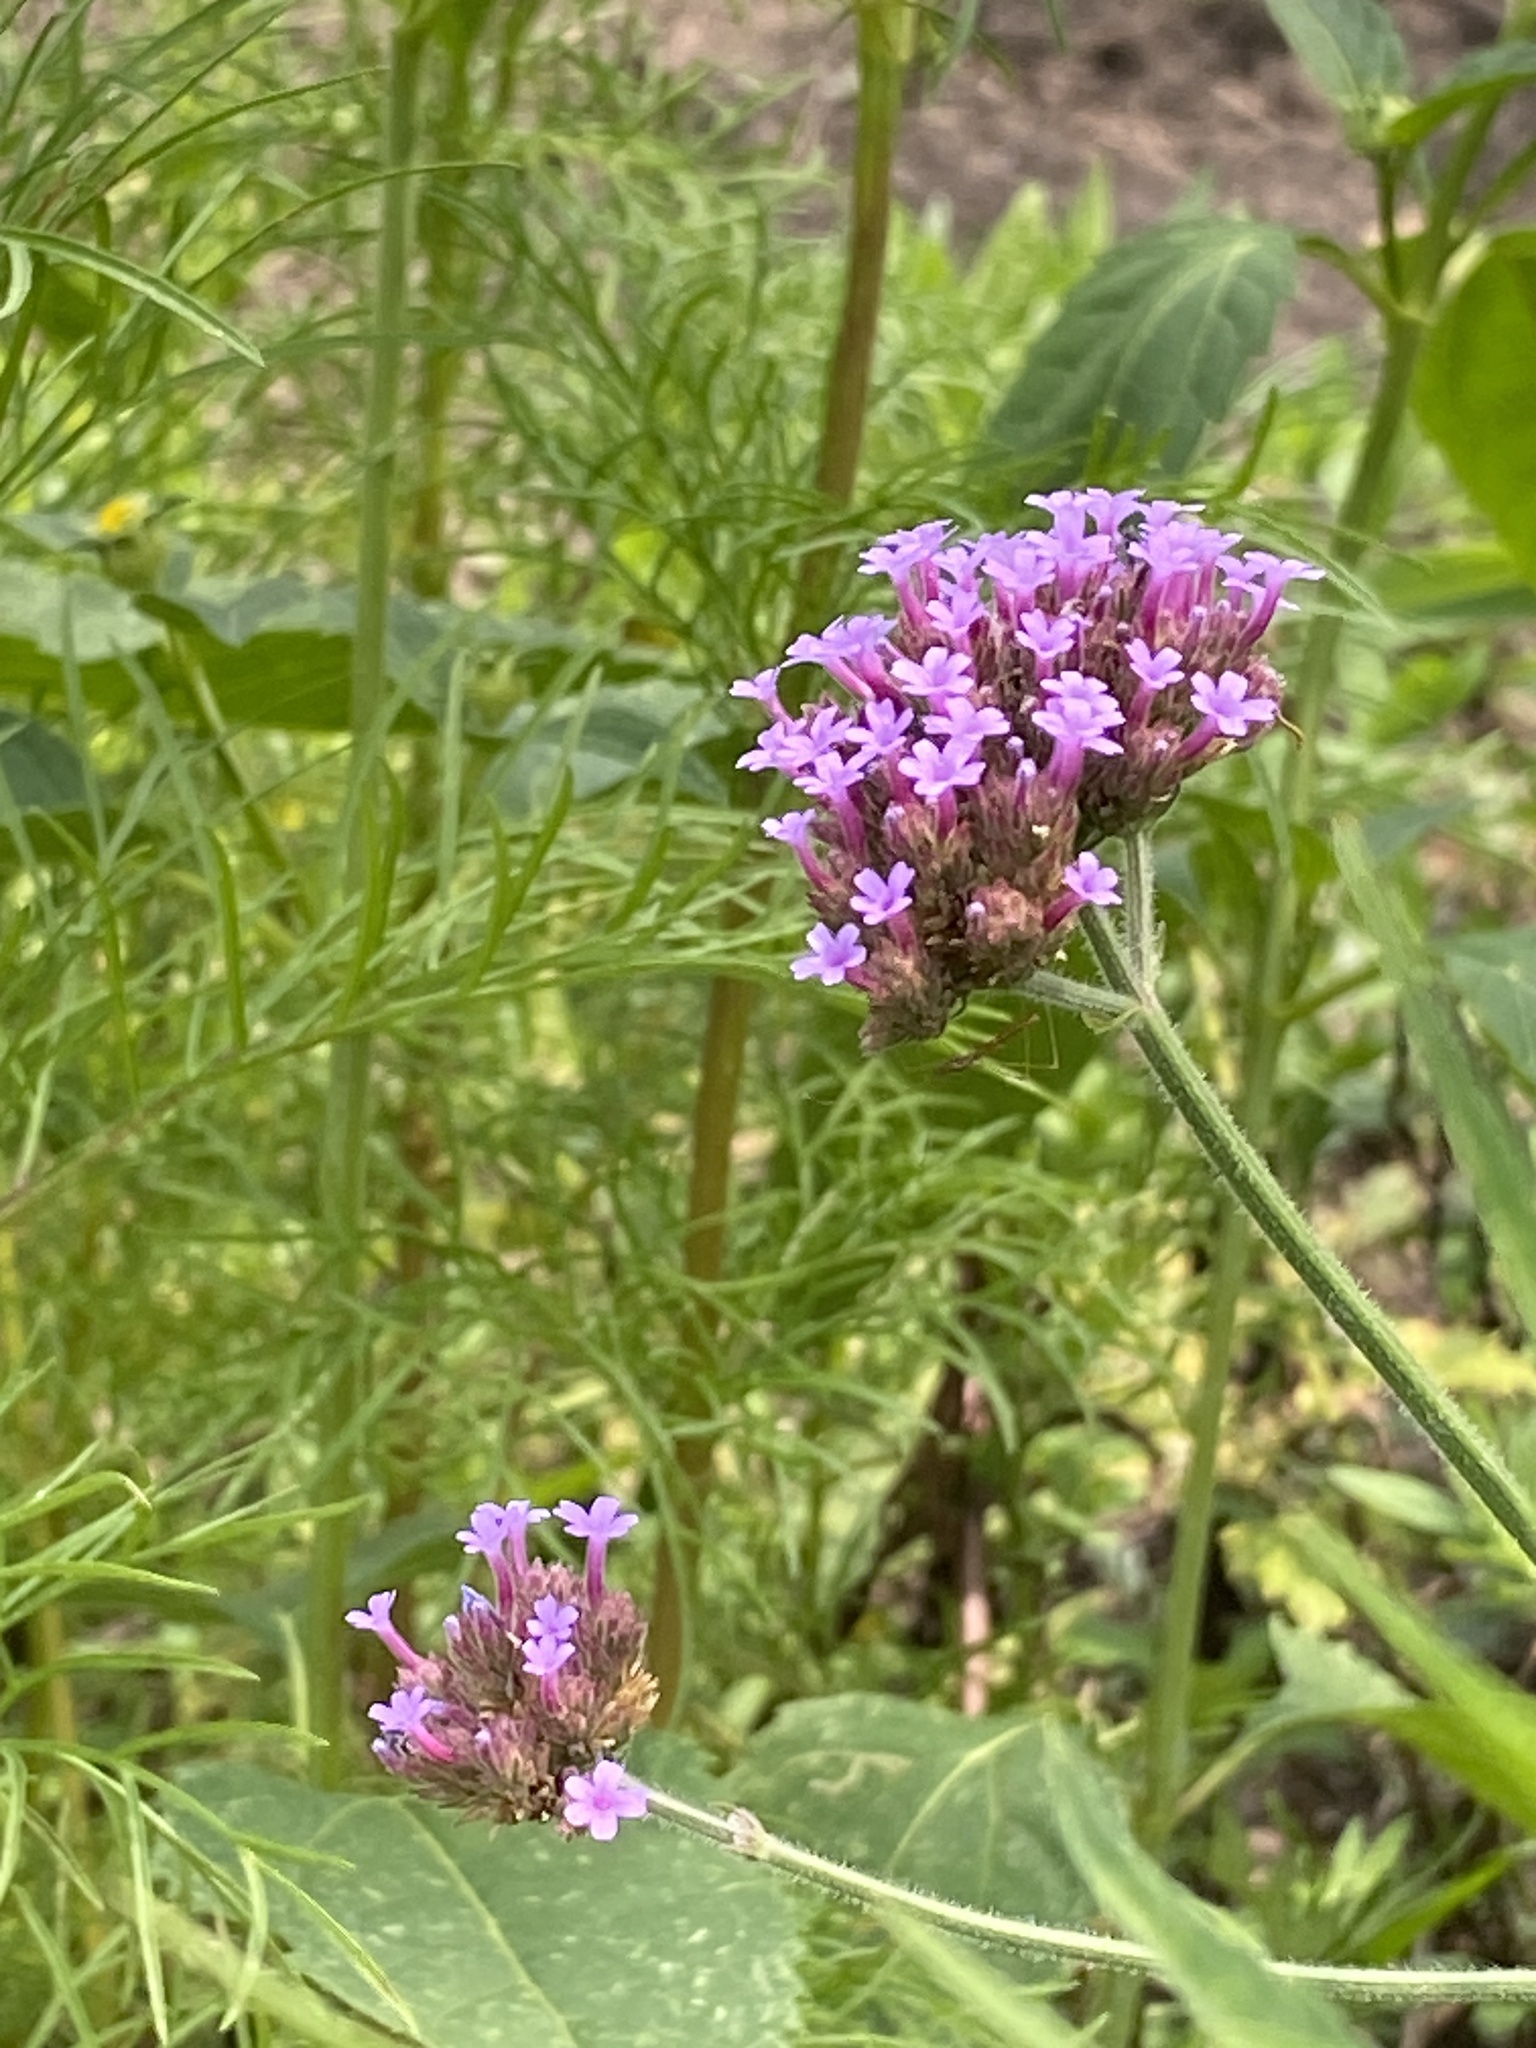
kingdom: Plantae
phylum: Tracheophyta
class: Magnoliopsida
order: Lamiales
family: Verbenaceae
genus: Verbena
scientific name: Verbena bonariensis
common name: Purpletop vervain
